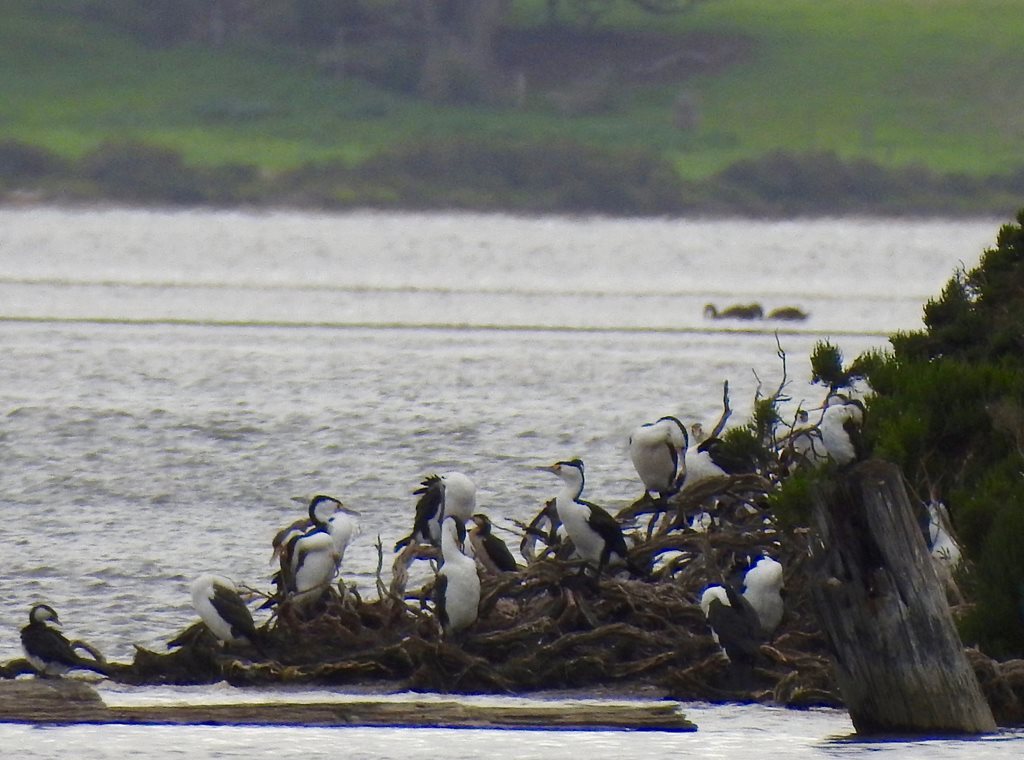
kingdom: Animalia
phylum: Chordata
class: Aves
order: Suliformes
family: Phalacrocoracidae
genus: Phalacrocorax
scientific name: Phalacrocorax varius
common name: Pied cormorant
